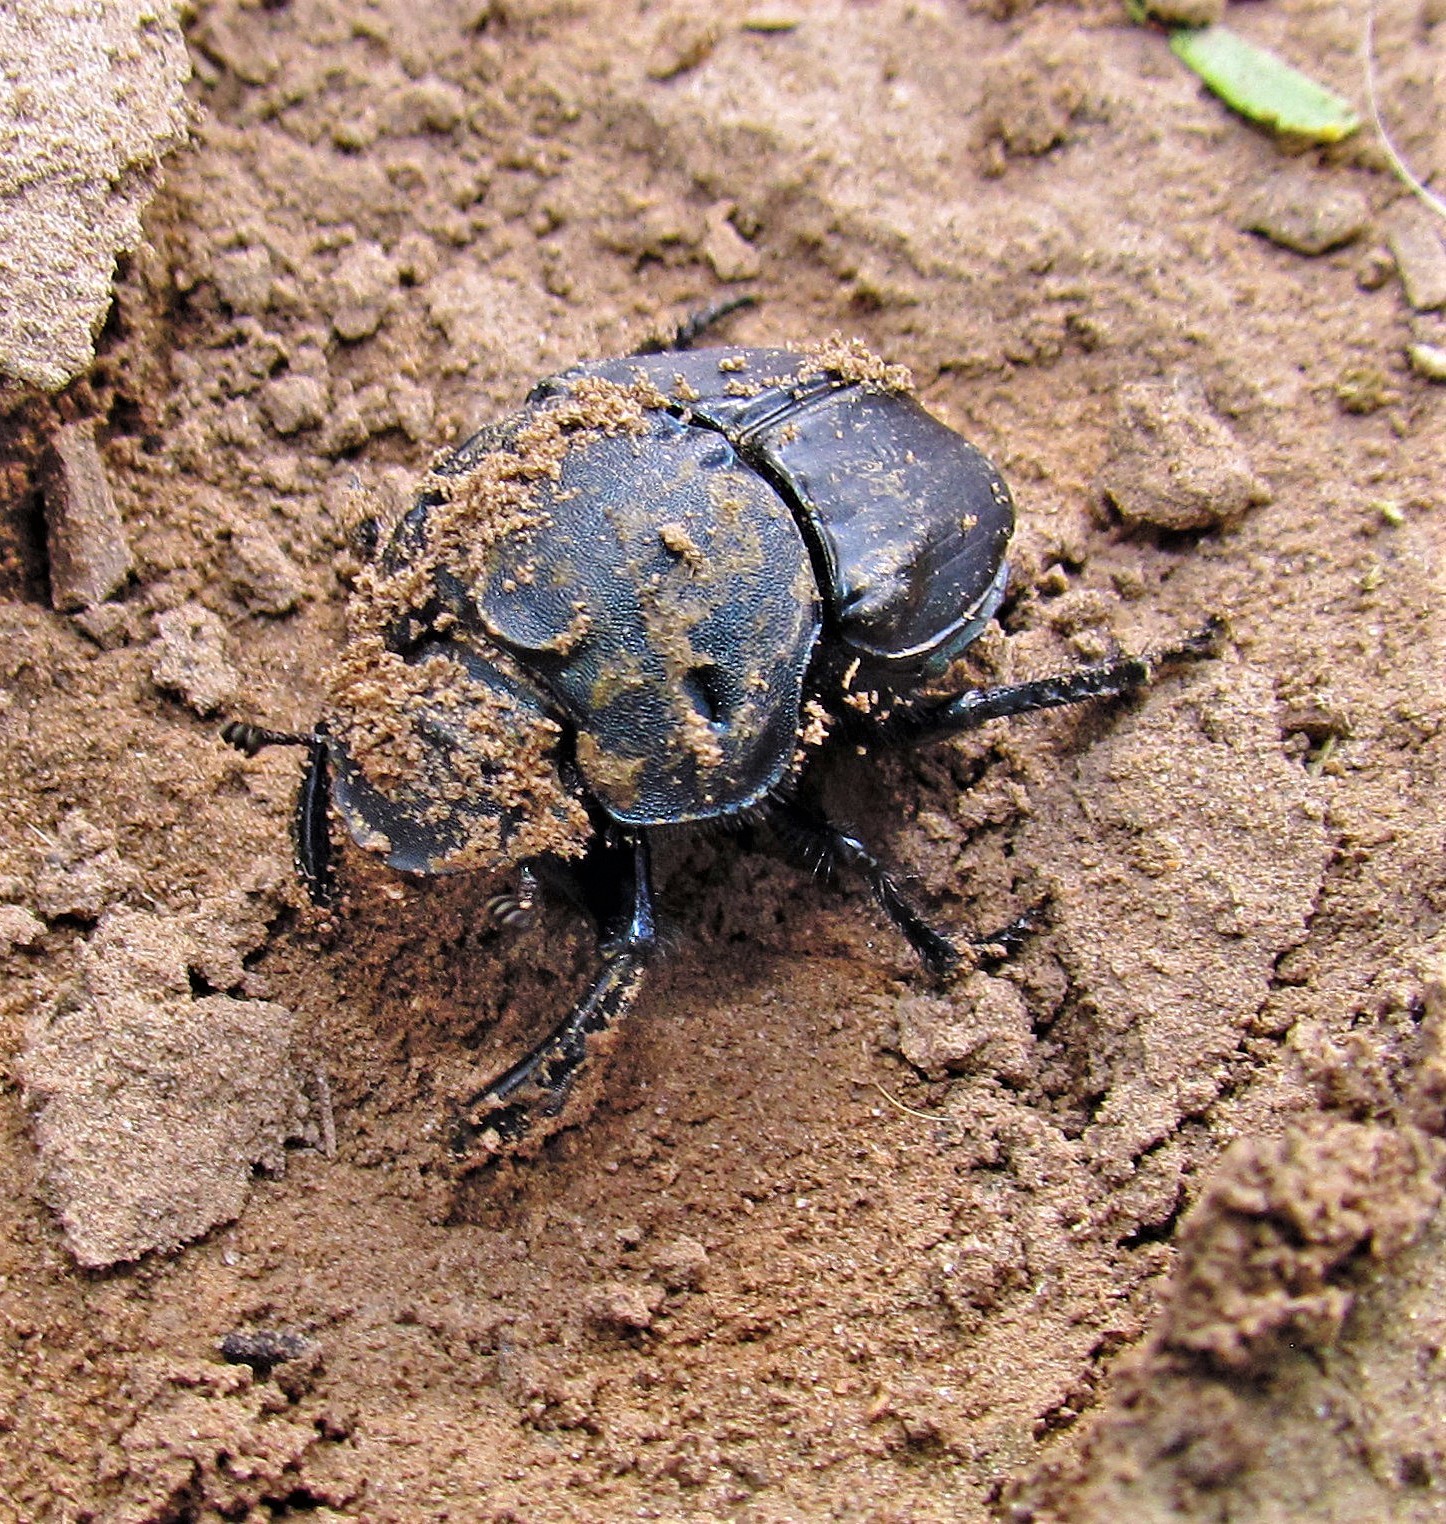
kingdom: Animalia
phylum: Arthropoda
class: Insecta
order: Coleoptera
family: Scarabaeidae
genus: Bolbites
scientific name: Bolbites onitoides
